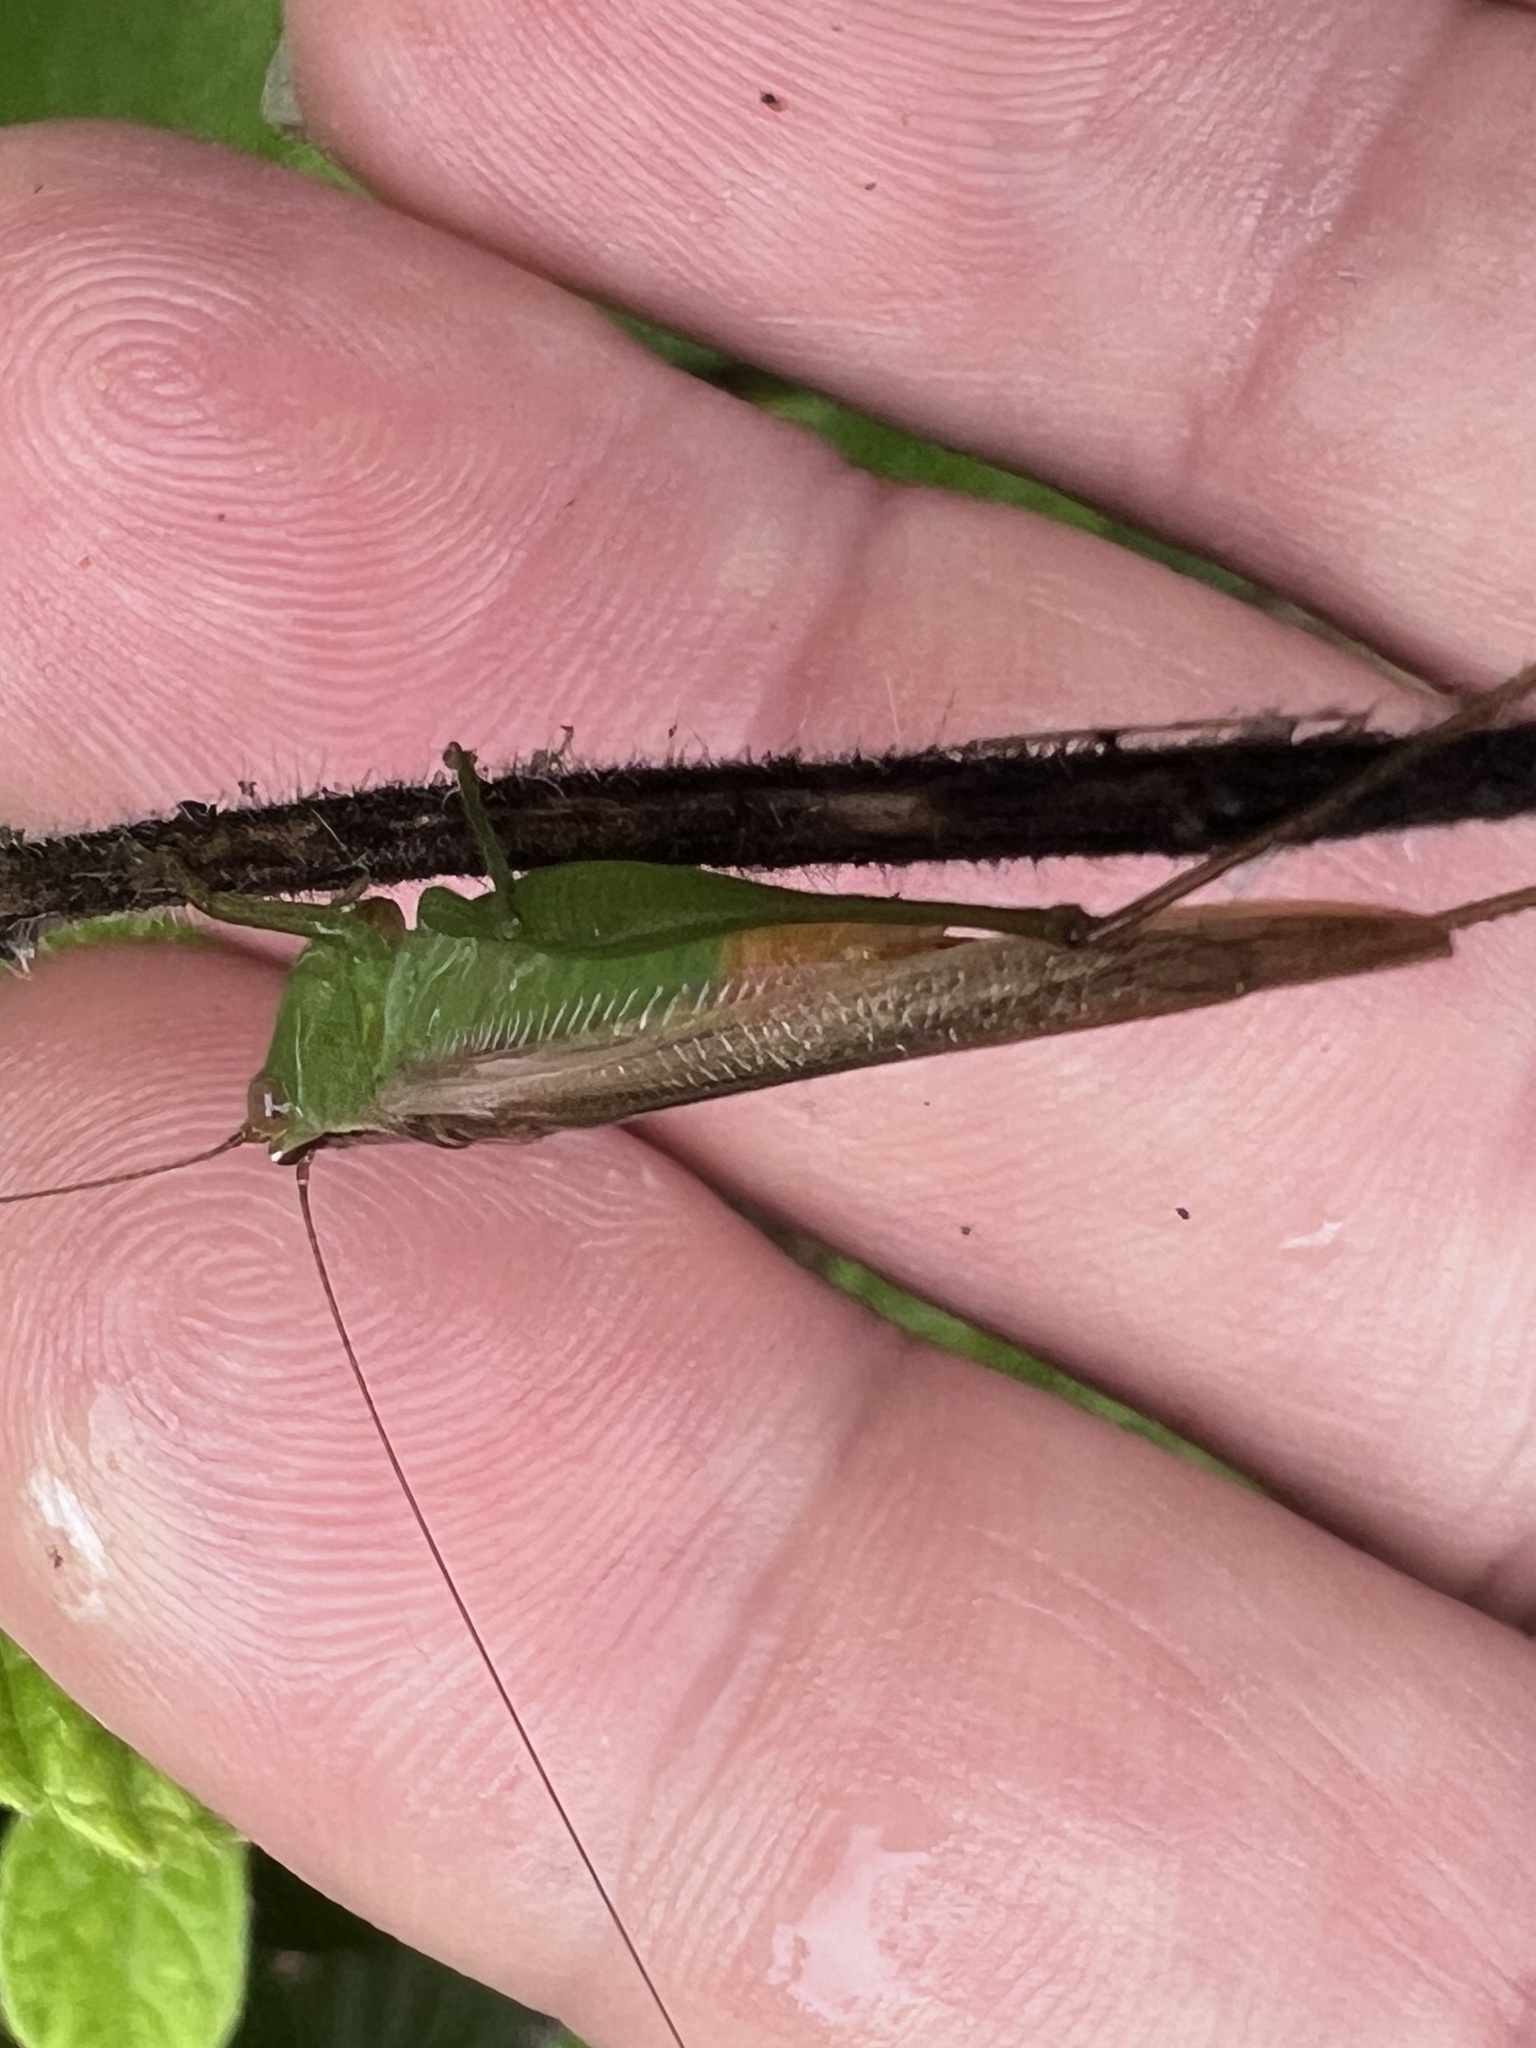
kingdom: Animalia
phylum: Arthropoda
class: Insecta
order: Orthoptera
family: Tettigoniidae
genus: Conocephalus
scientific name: Conocephalus cinereus
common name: Caribbean meadow katydid
